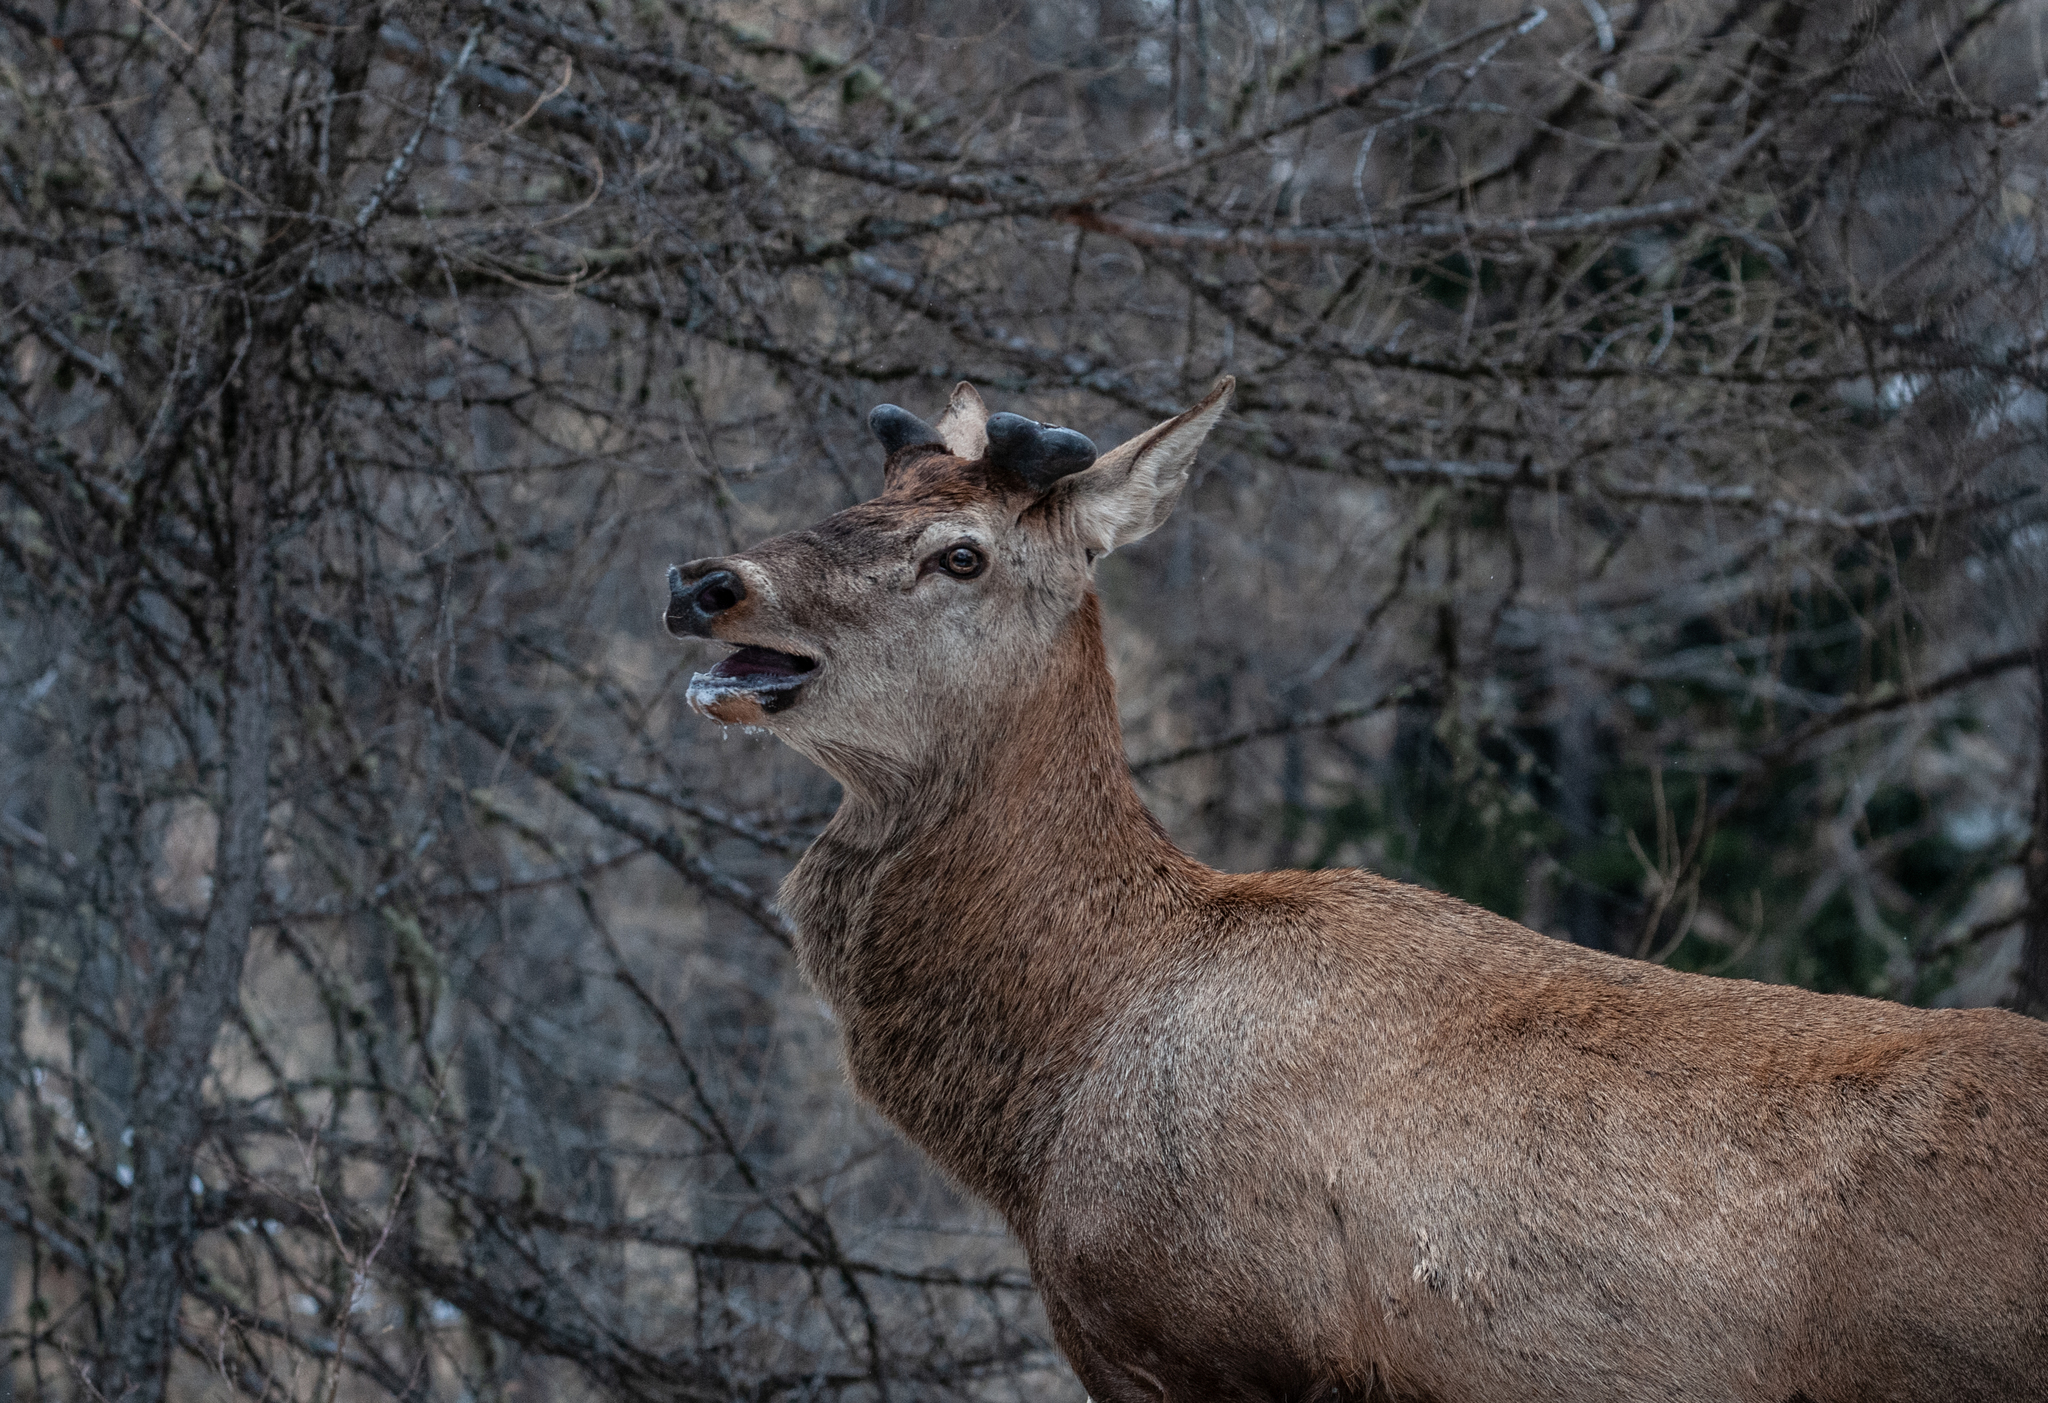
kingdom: Animalia
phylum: Chordata
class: Mammalia
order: Artiodactyla
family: Cervidae
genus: Cervus
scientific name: Cervus elaphus
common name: Red deer
